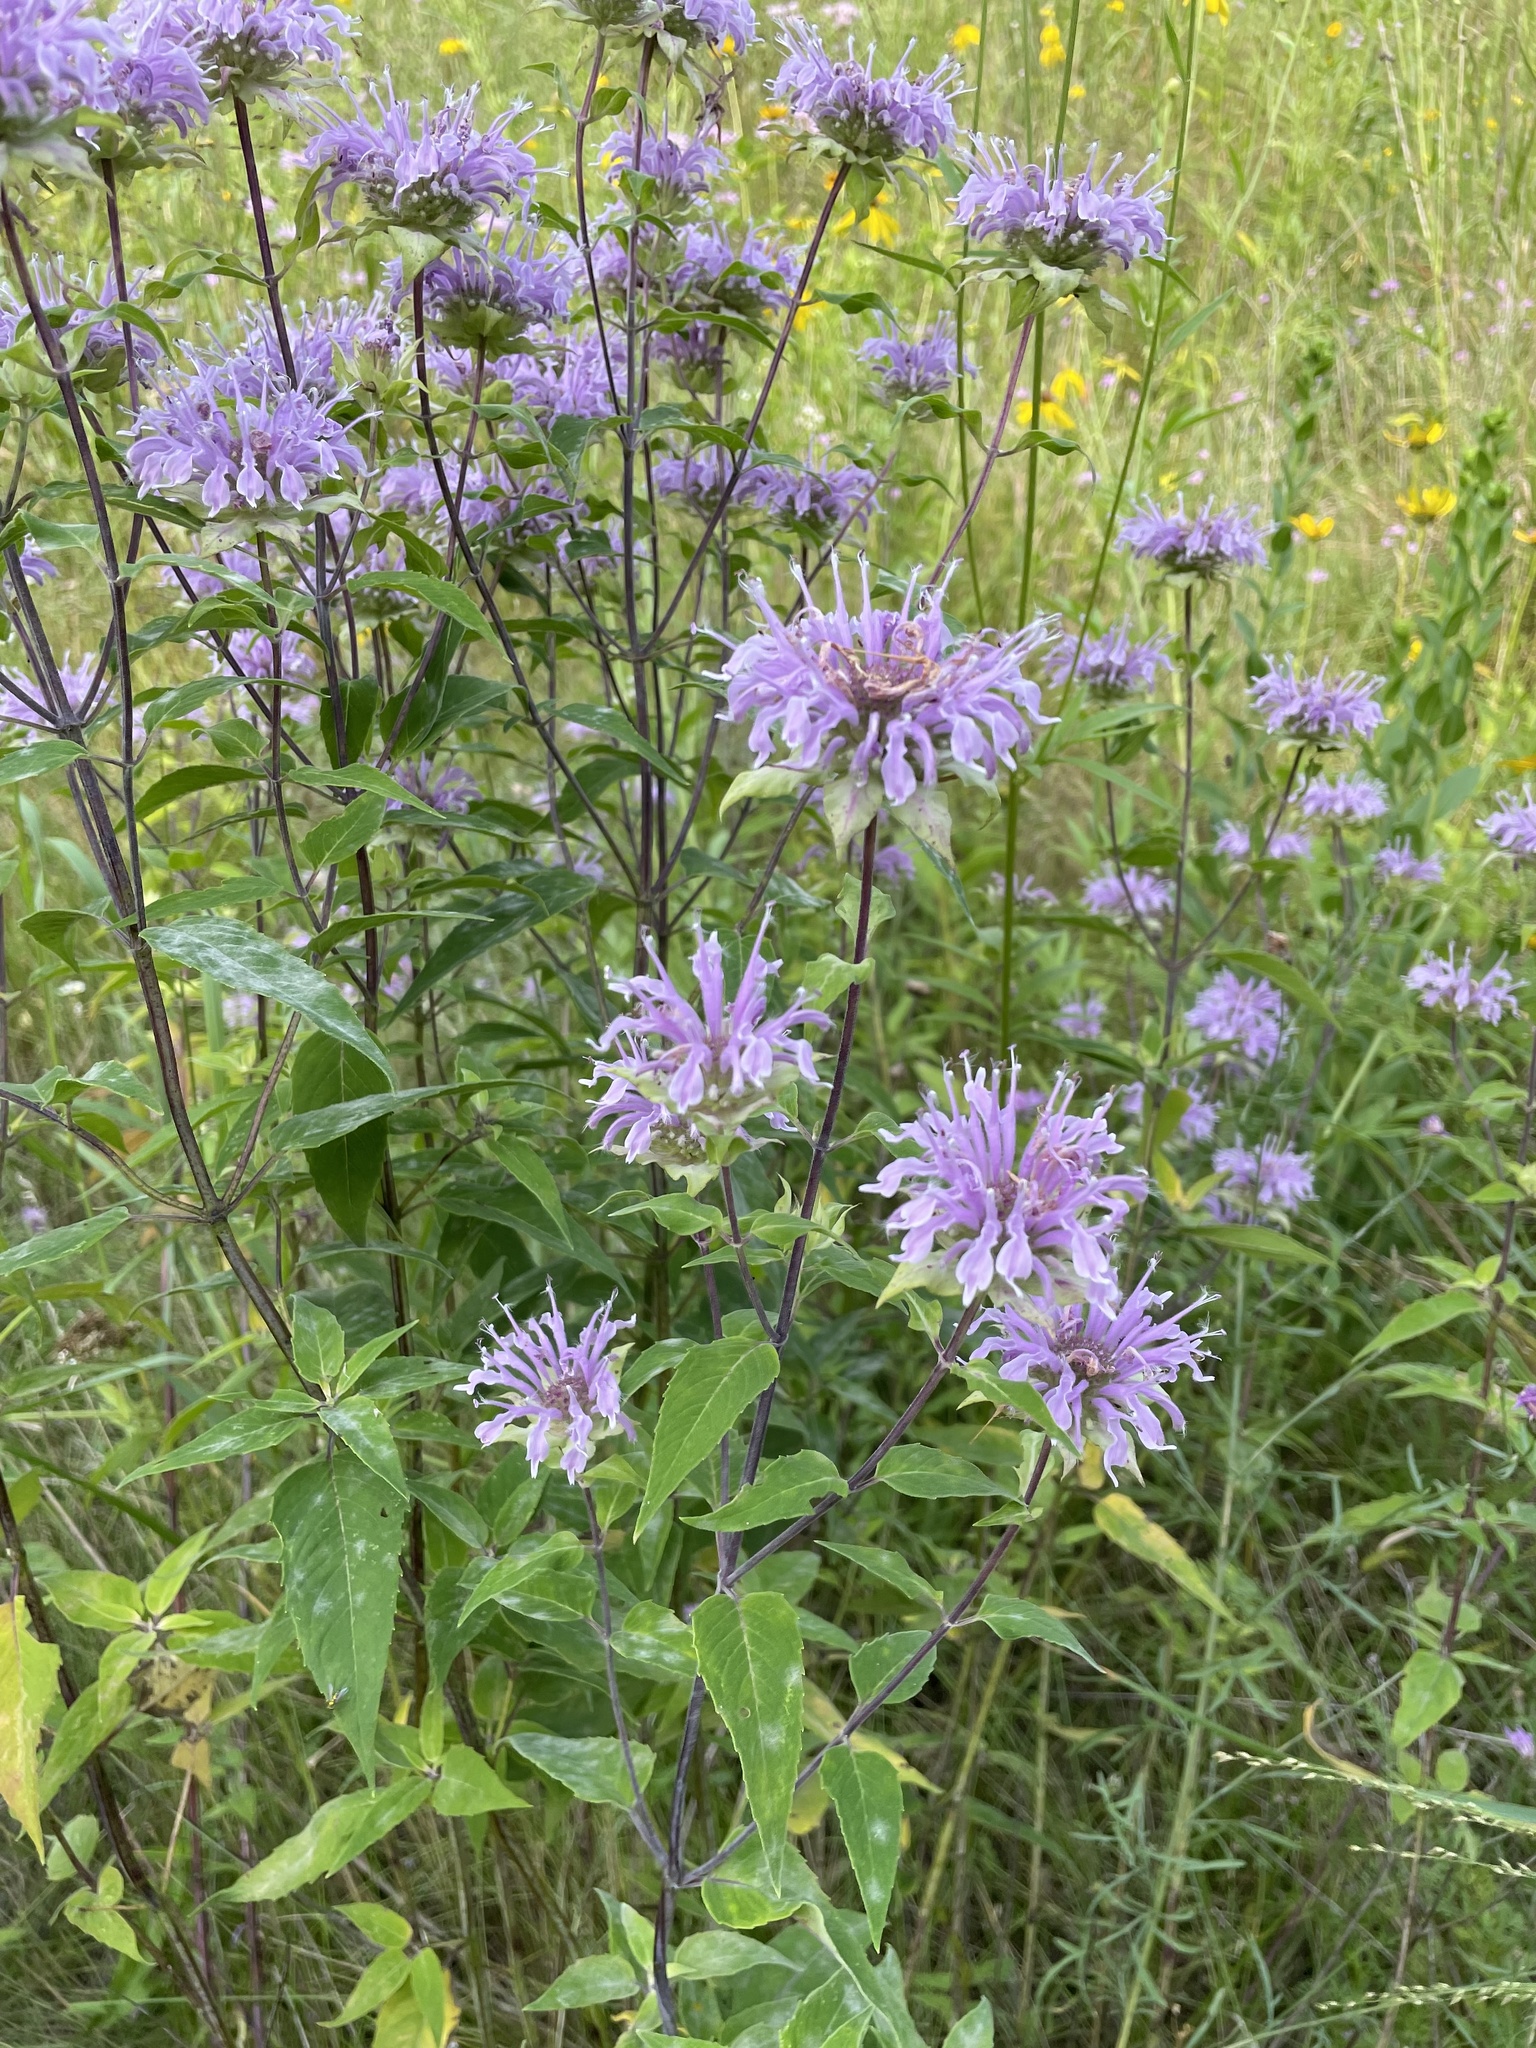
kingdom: Plantae
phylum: Tracheophyta
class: Magnoliopsida
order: Lamiales
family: Lamiaceae
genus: Monarda
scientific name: Monarda fistulosa
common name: Purple beebalm
